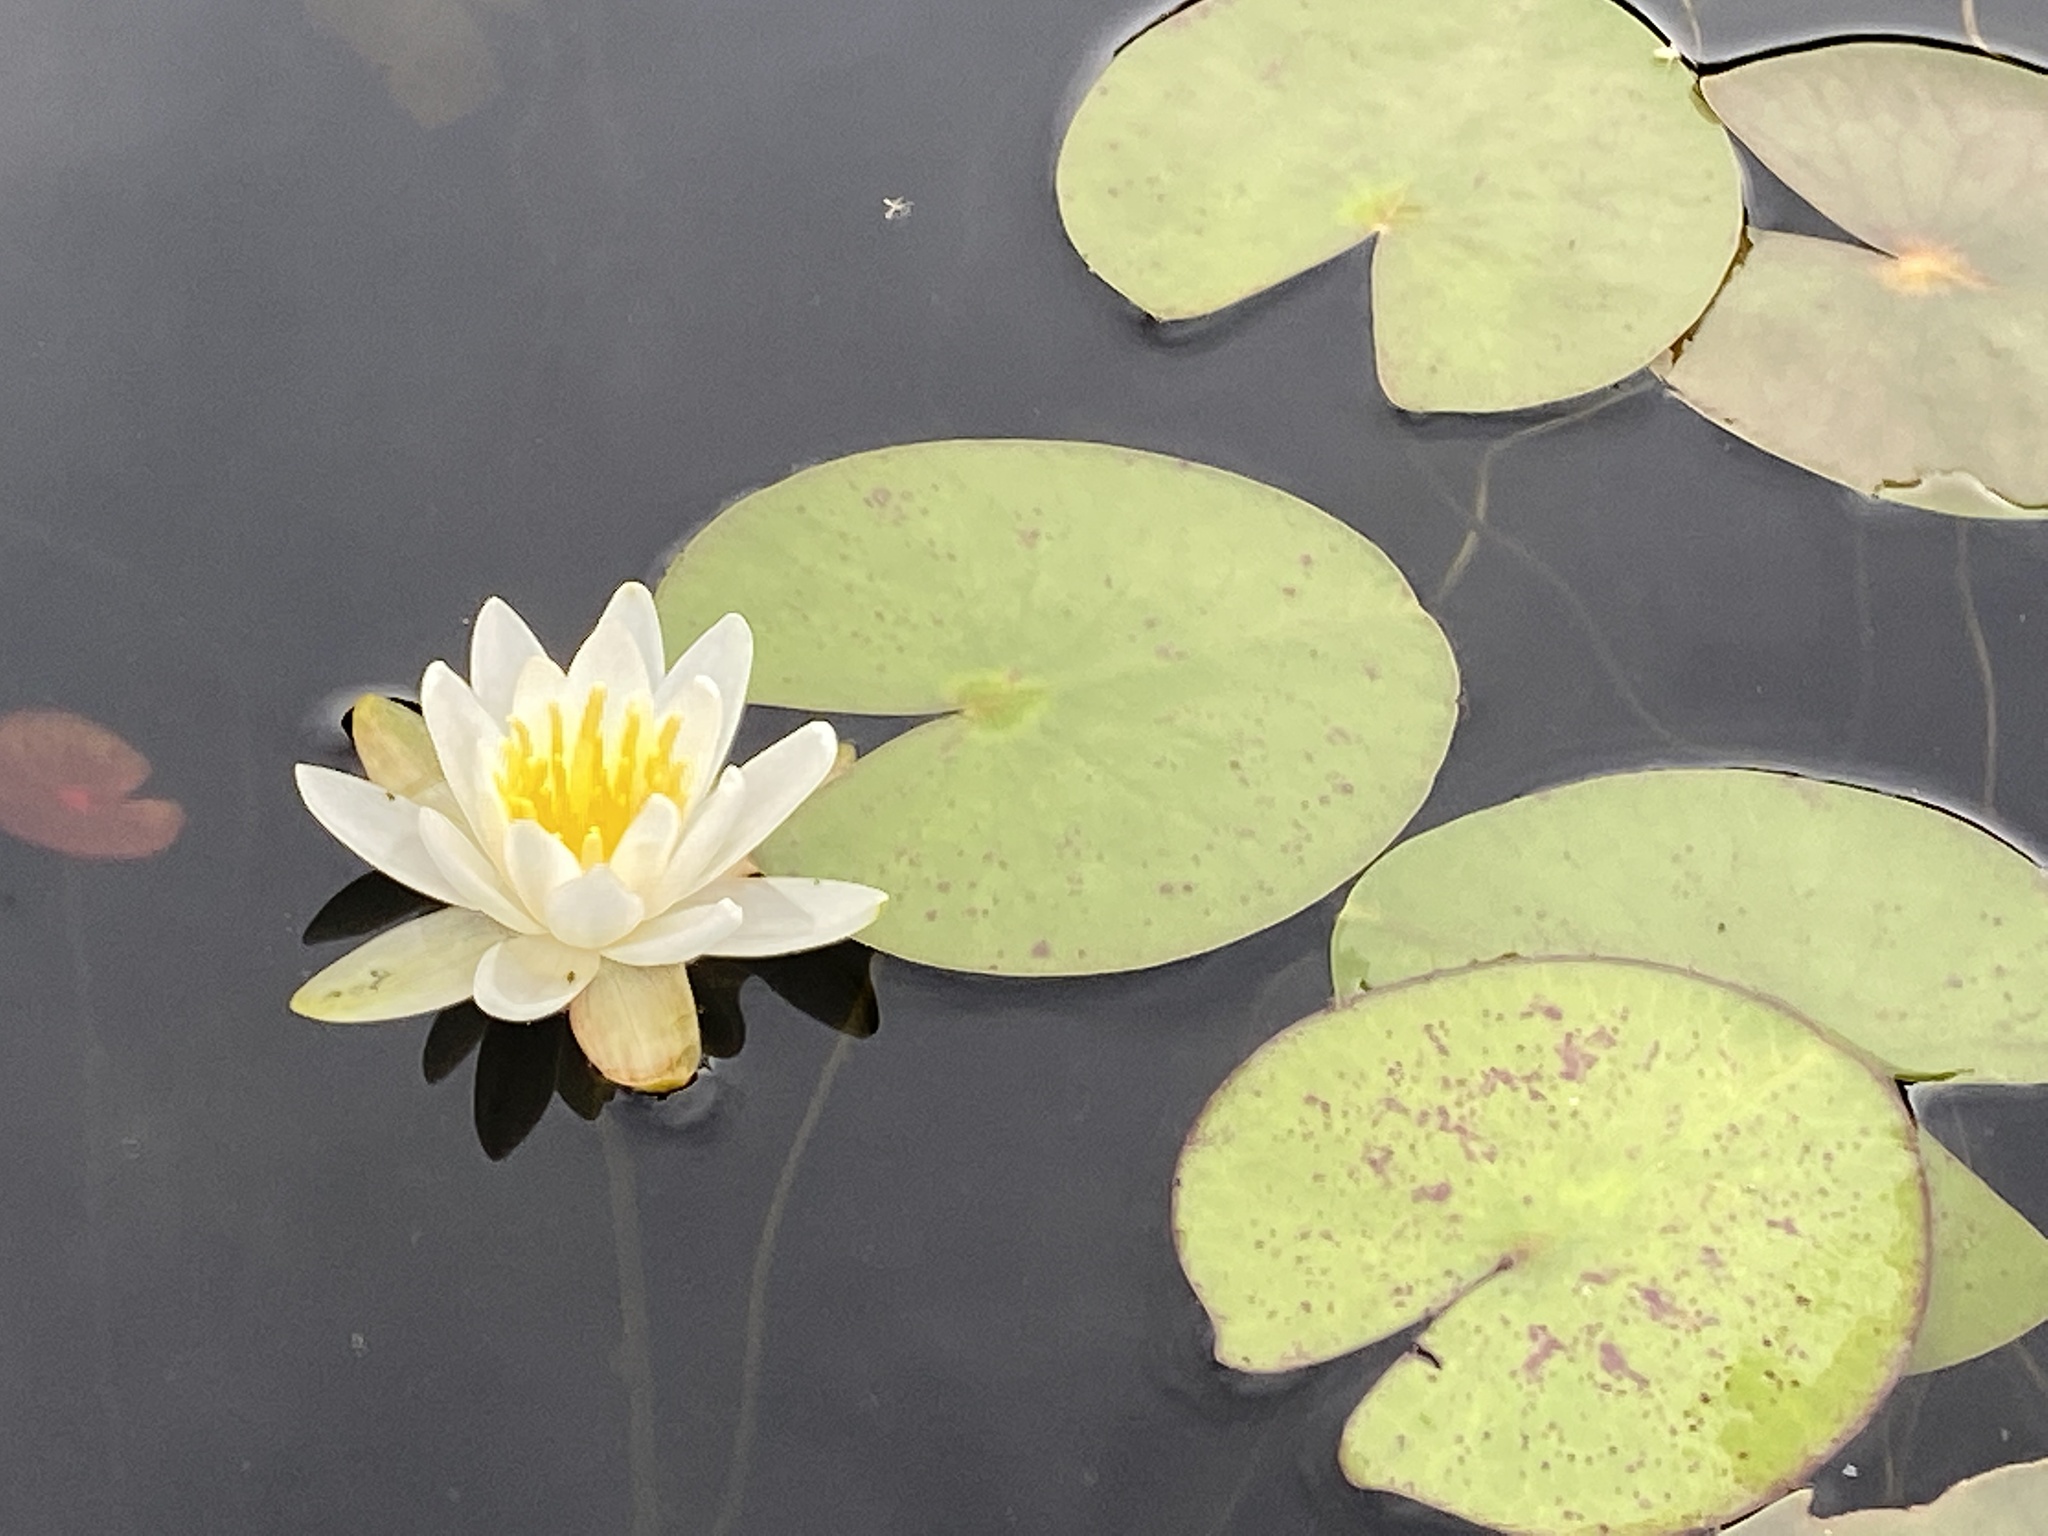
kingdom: Plantae
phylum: Tracheophyta
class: Magnoliopsida
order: Nymphaeales
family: Nymphaeaceae
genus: Nymphaea
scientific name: Nymphaea odorata
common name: Fragrant water-lily
